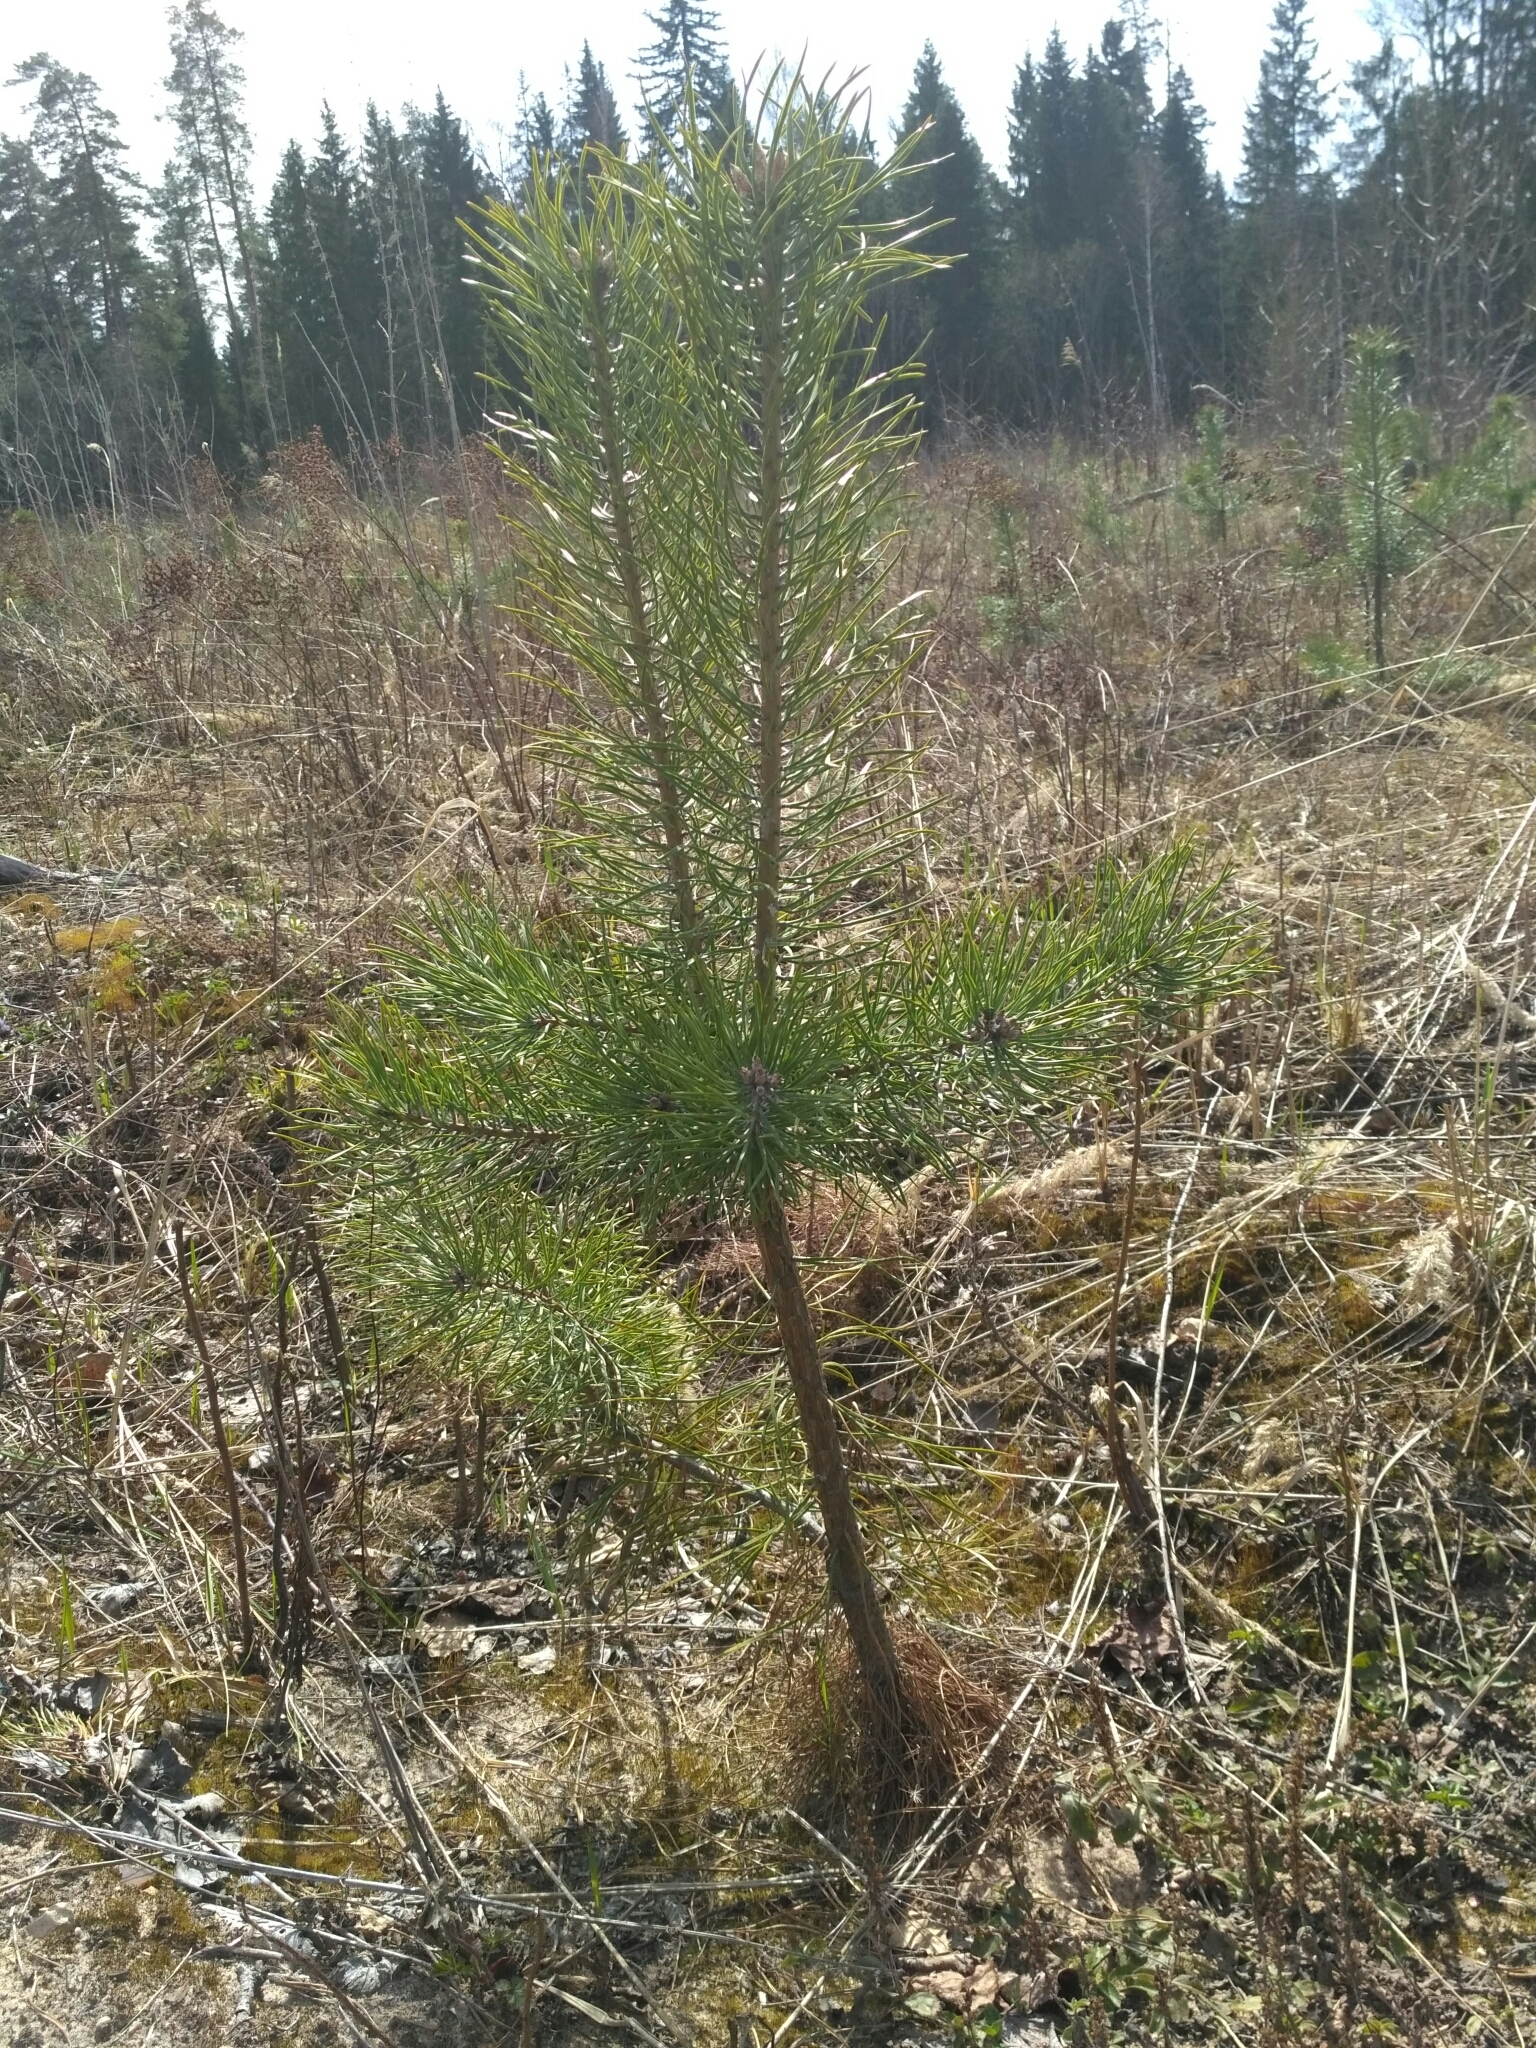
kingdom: Plantae
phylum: Tracheophyta
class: Pinopsida
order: Pinales
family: Pinaceae
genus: Pinus
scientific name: Pinus sylvestris
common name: Scots pine
